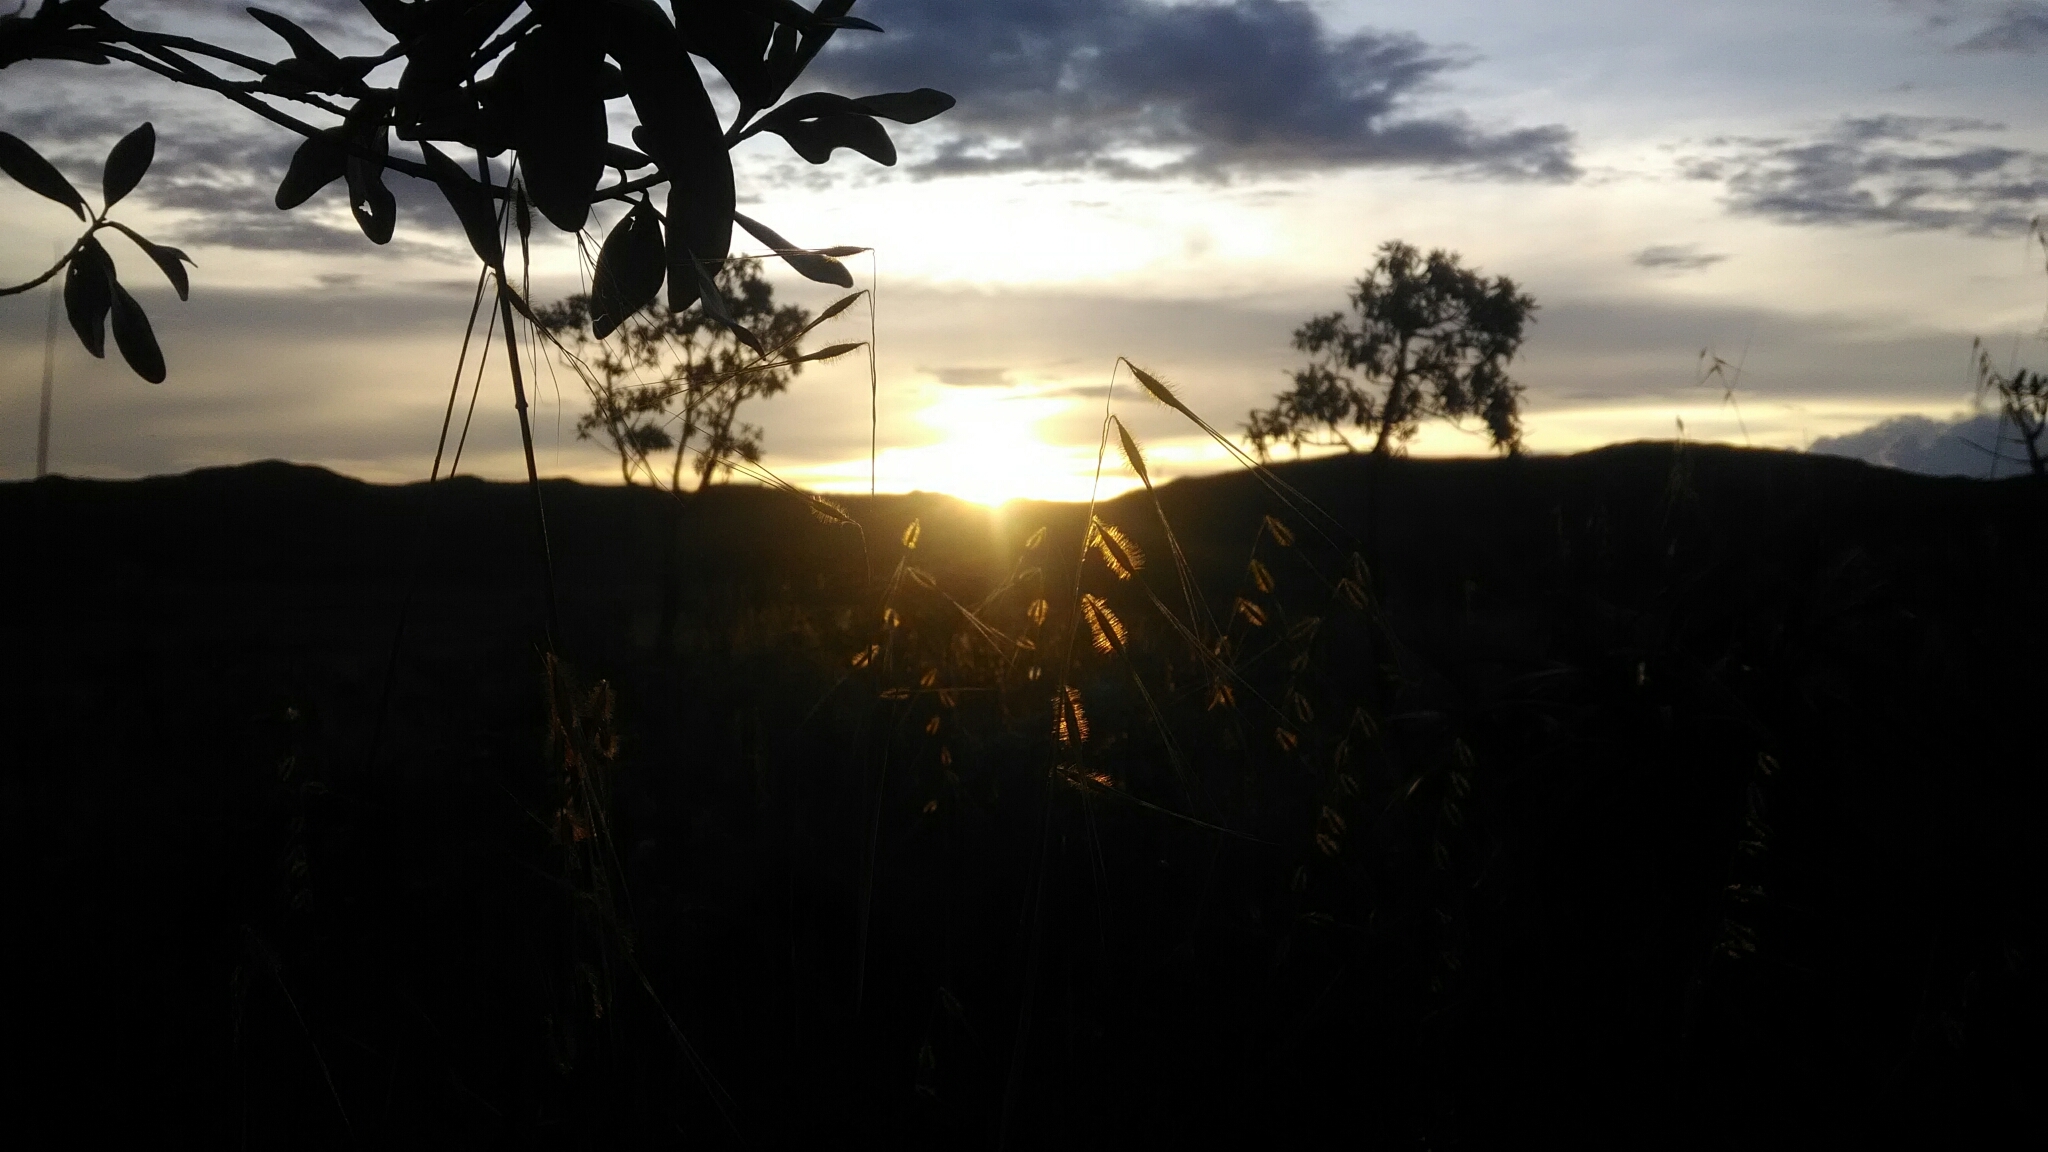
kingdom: Plantae
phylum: Tracheophyta
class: Liliopsida
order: Poales
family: Poaceae
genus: Loudetiopsis
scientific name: Loudetiopsis chrysothrix
